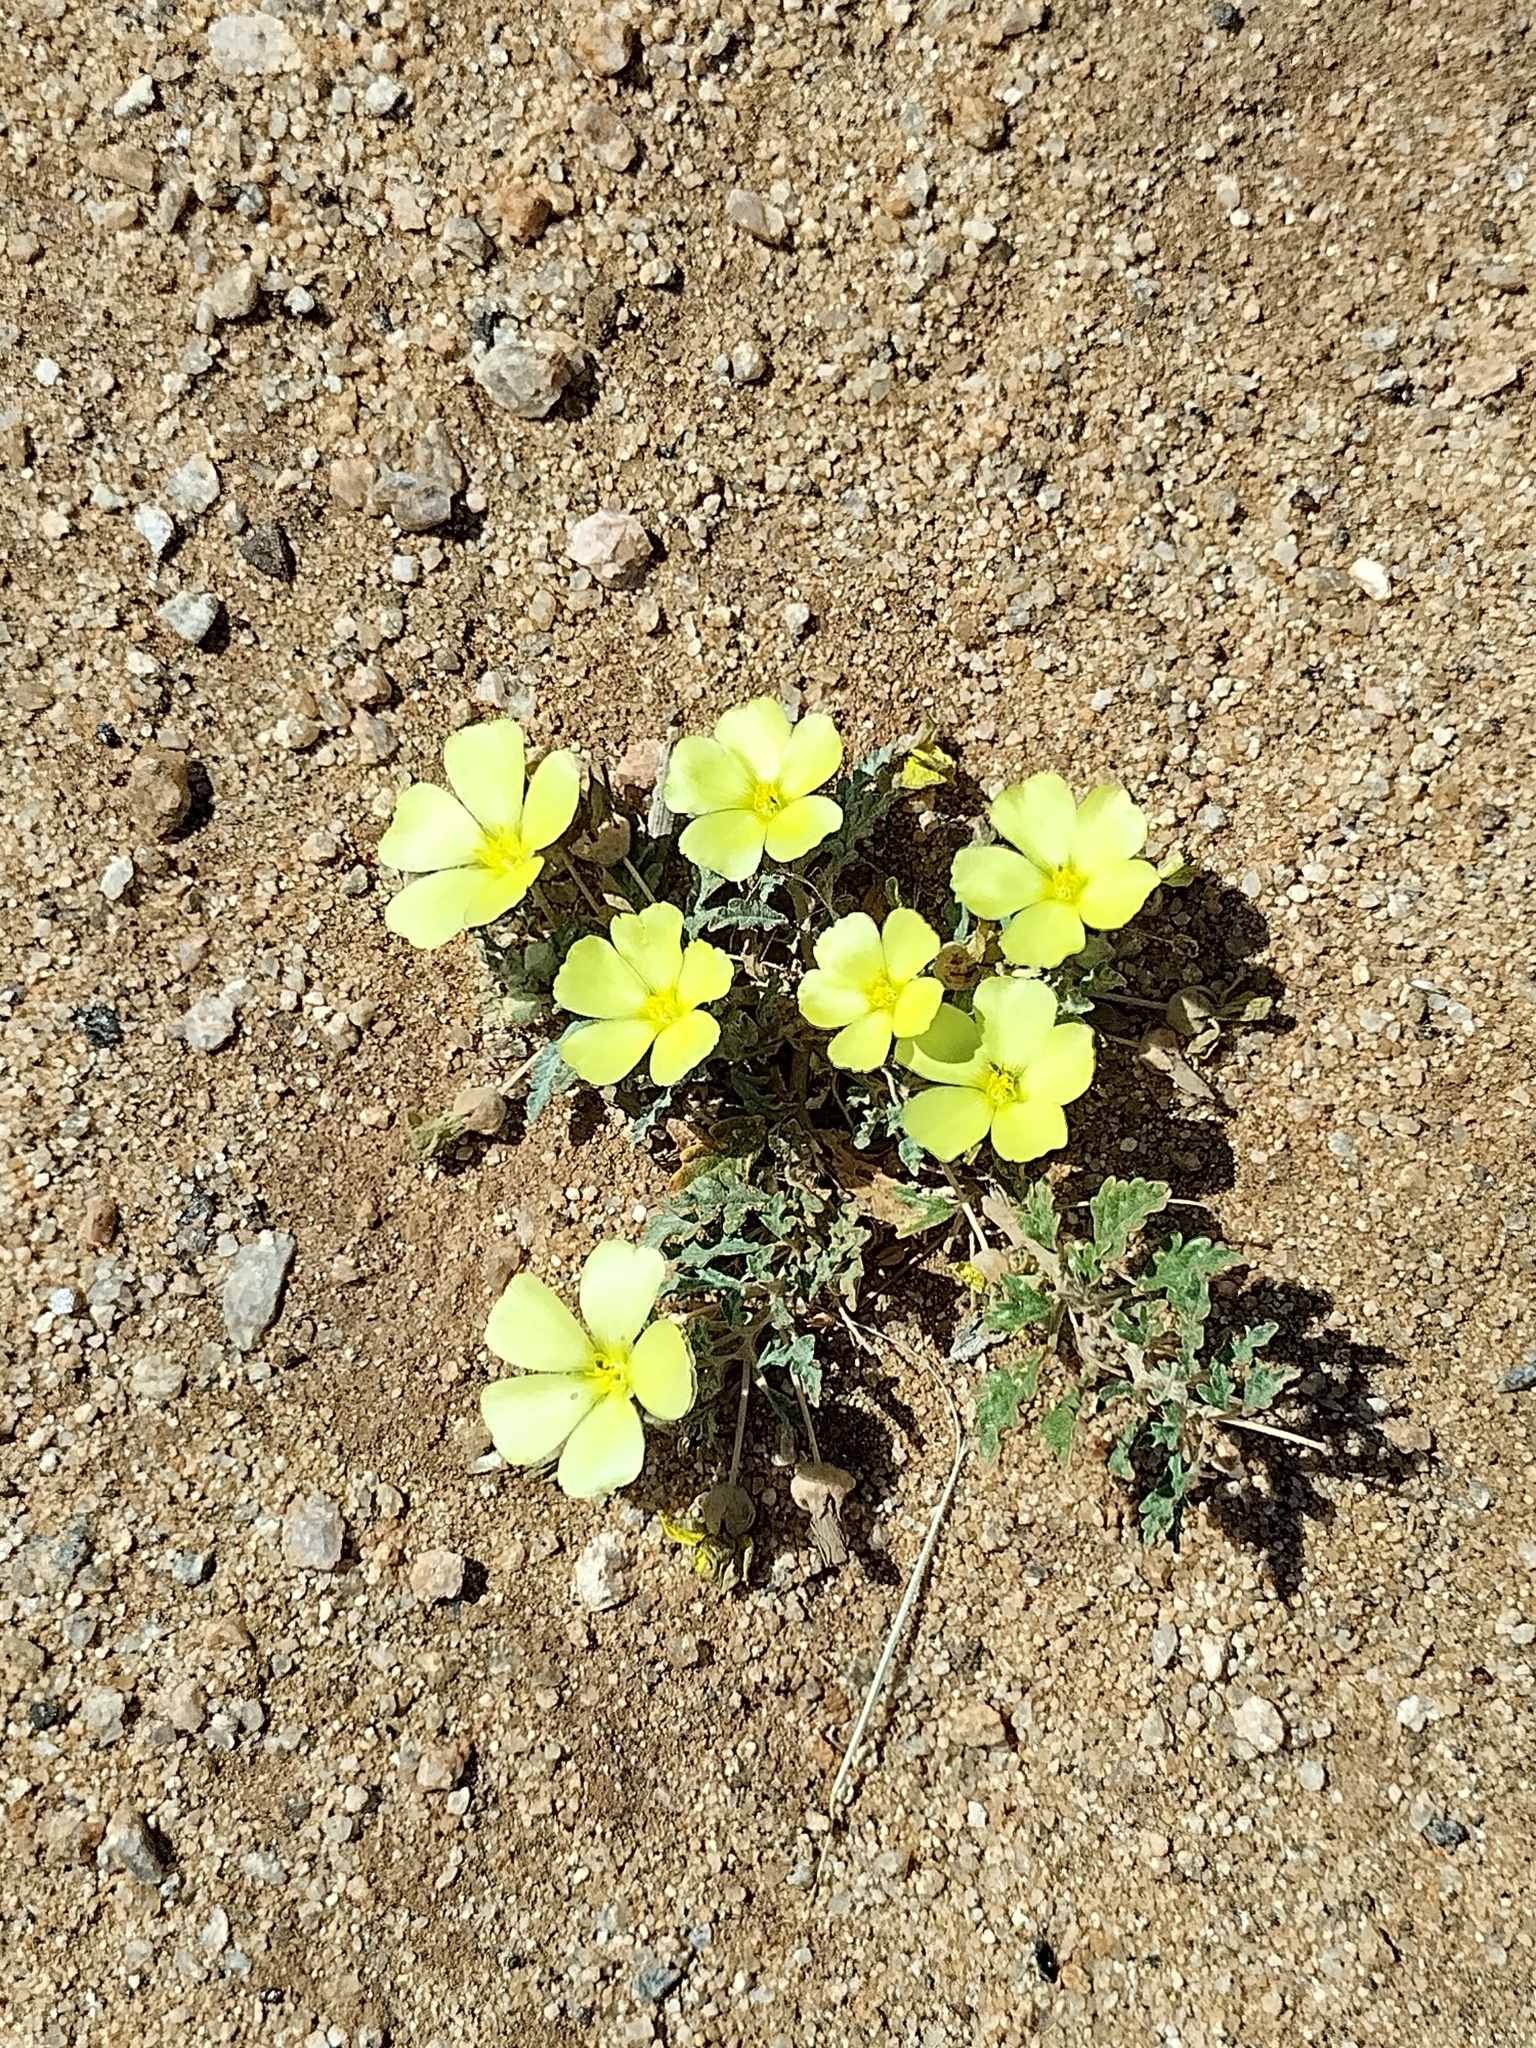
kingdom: Plantae
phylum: Tracheophyta
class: Magnoliopsida
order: Malvales
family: Neuradaceae
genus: Grielum
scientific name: Grielum humifusum
